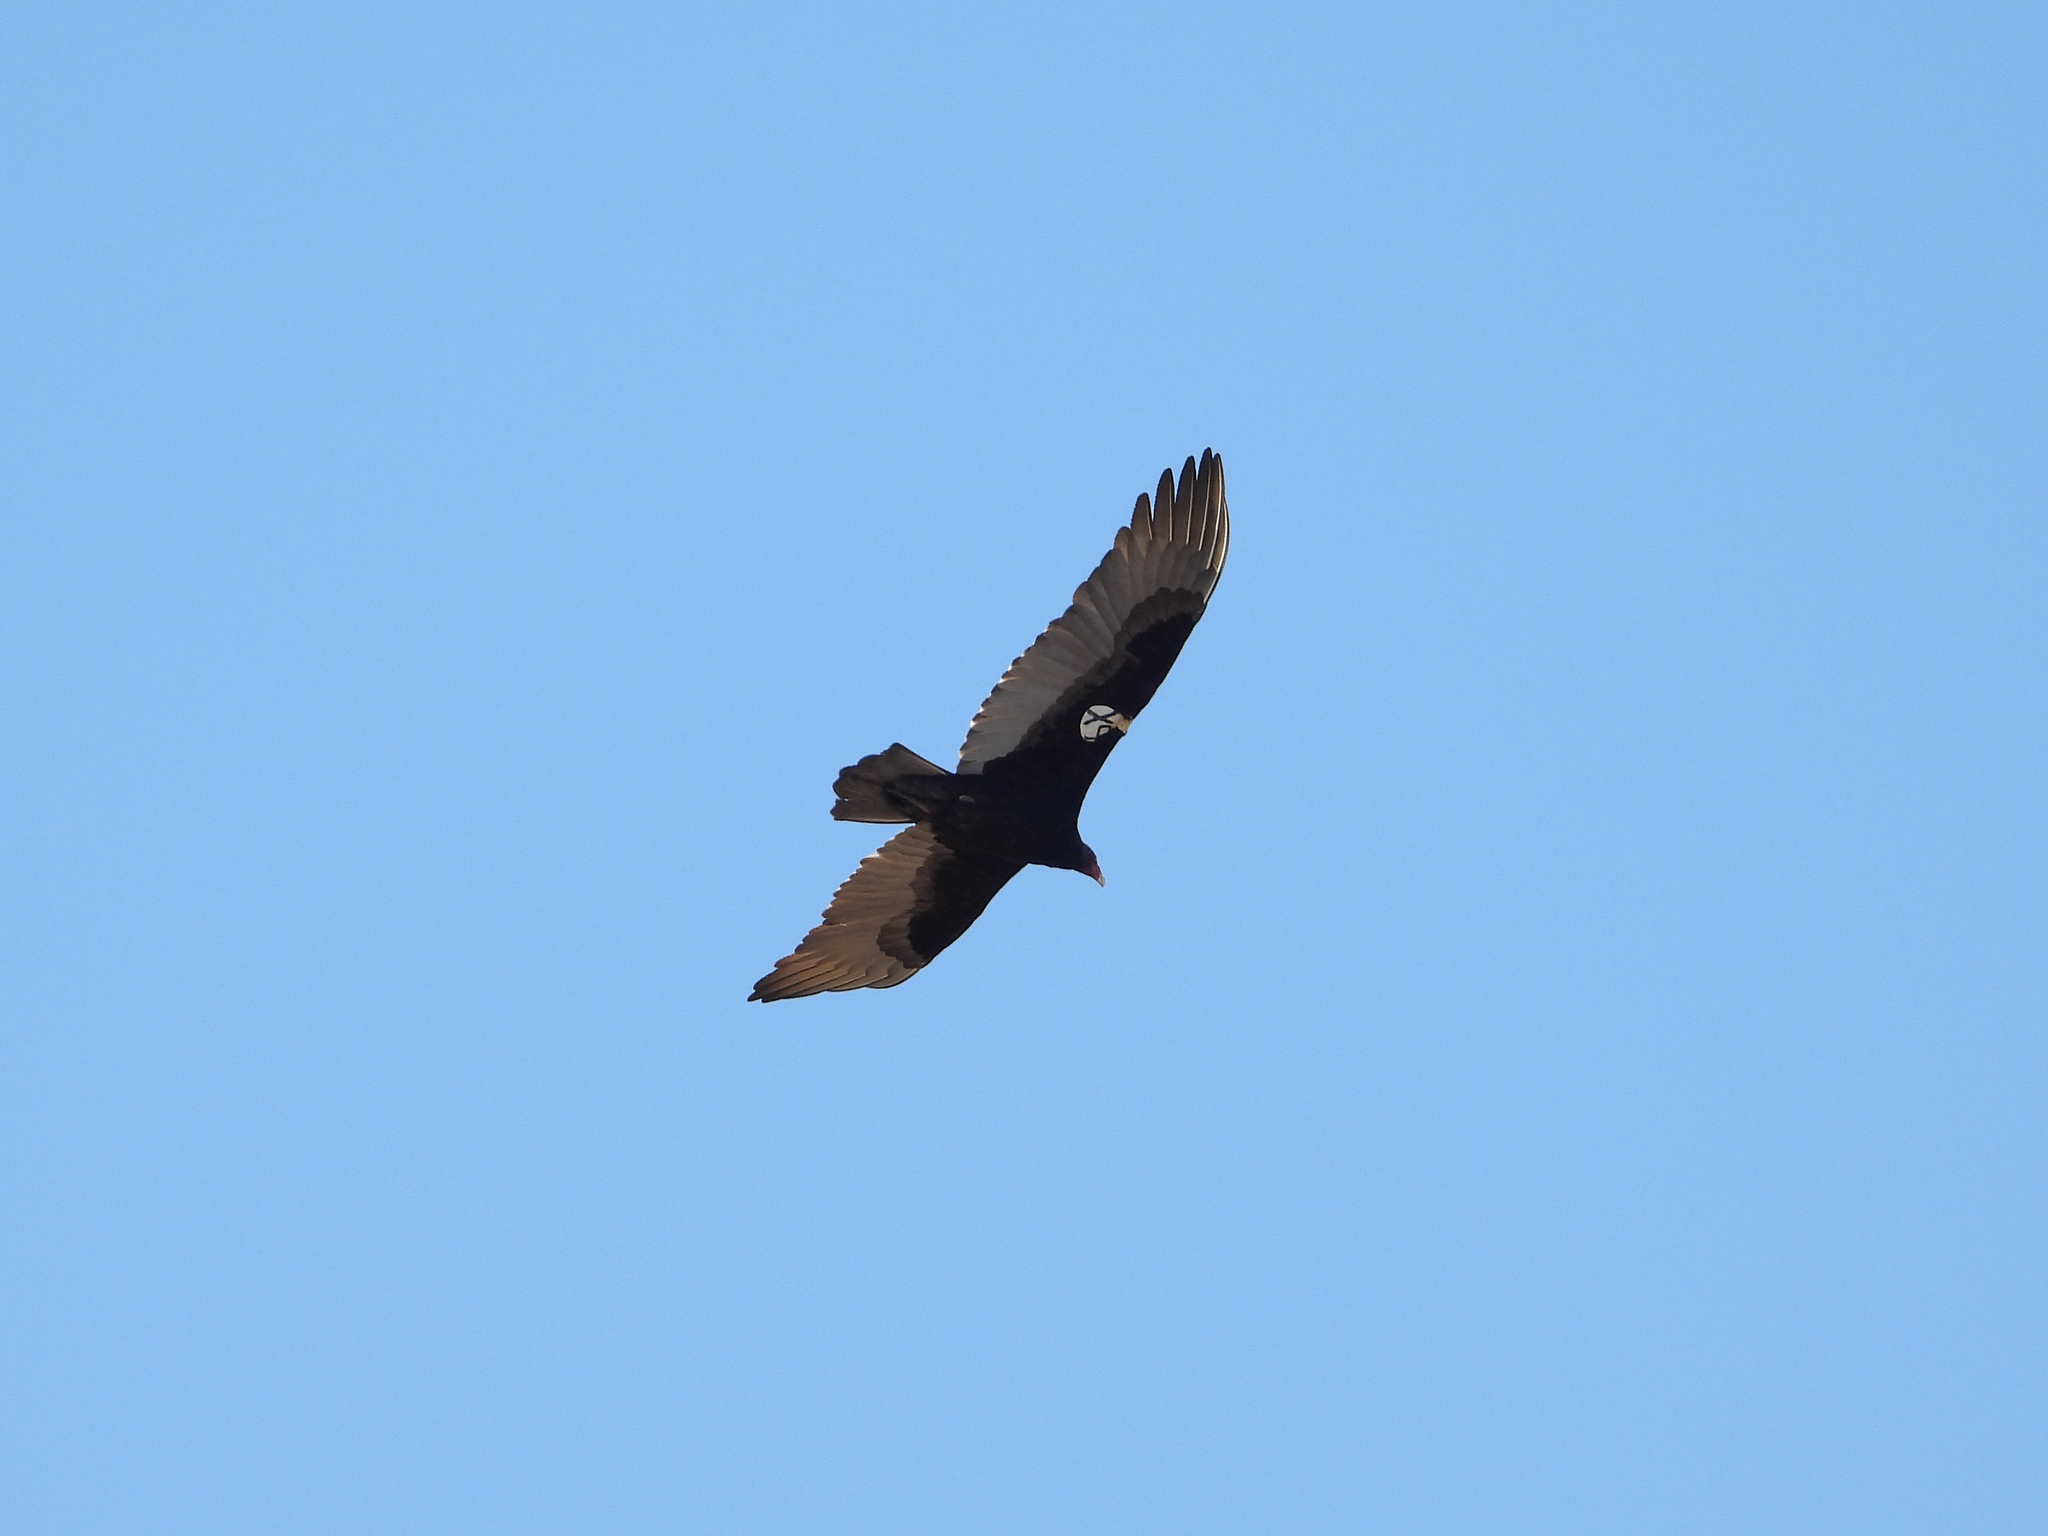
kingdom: Animalia
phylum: Chordata
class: Aves
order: Accipitriformes
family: Cathartidae
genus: Cathartes
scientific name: Cathartes aura
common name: Turkey vulture
